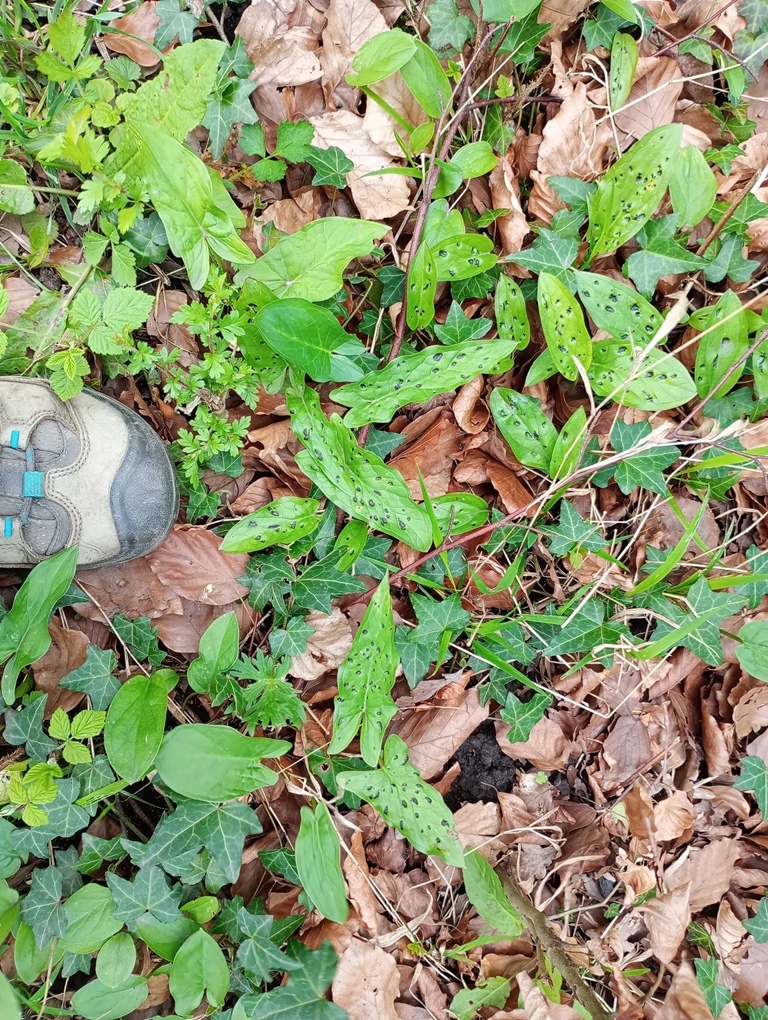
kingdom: Plantae
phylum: Tracheophyta
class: Liliopsida
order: Alismatales
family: Araceae
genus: Arum
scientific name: Arum maculatum
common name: Lords-and-ladies
